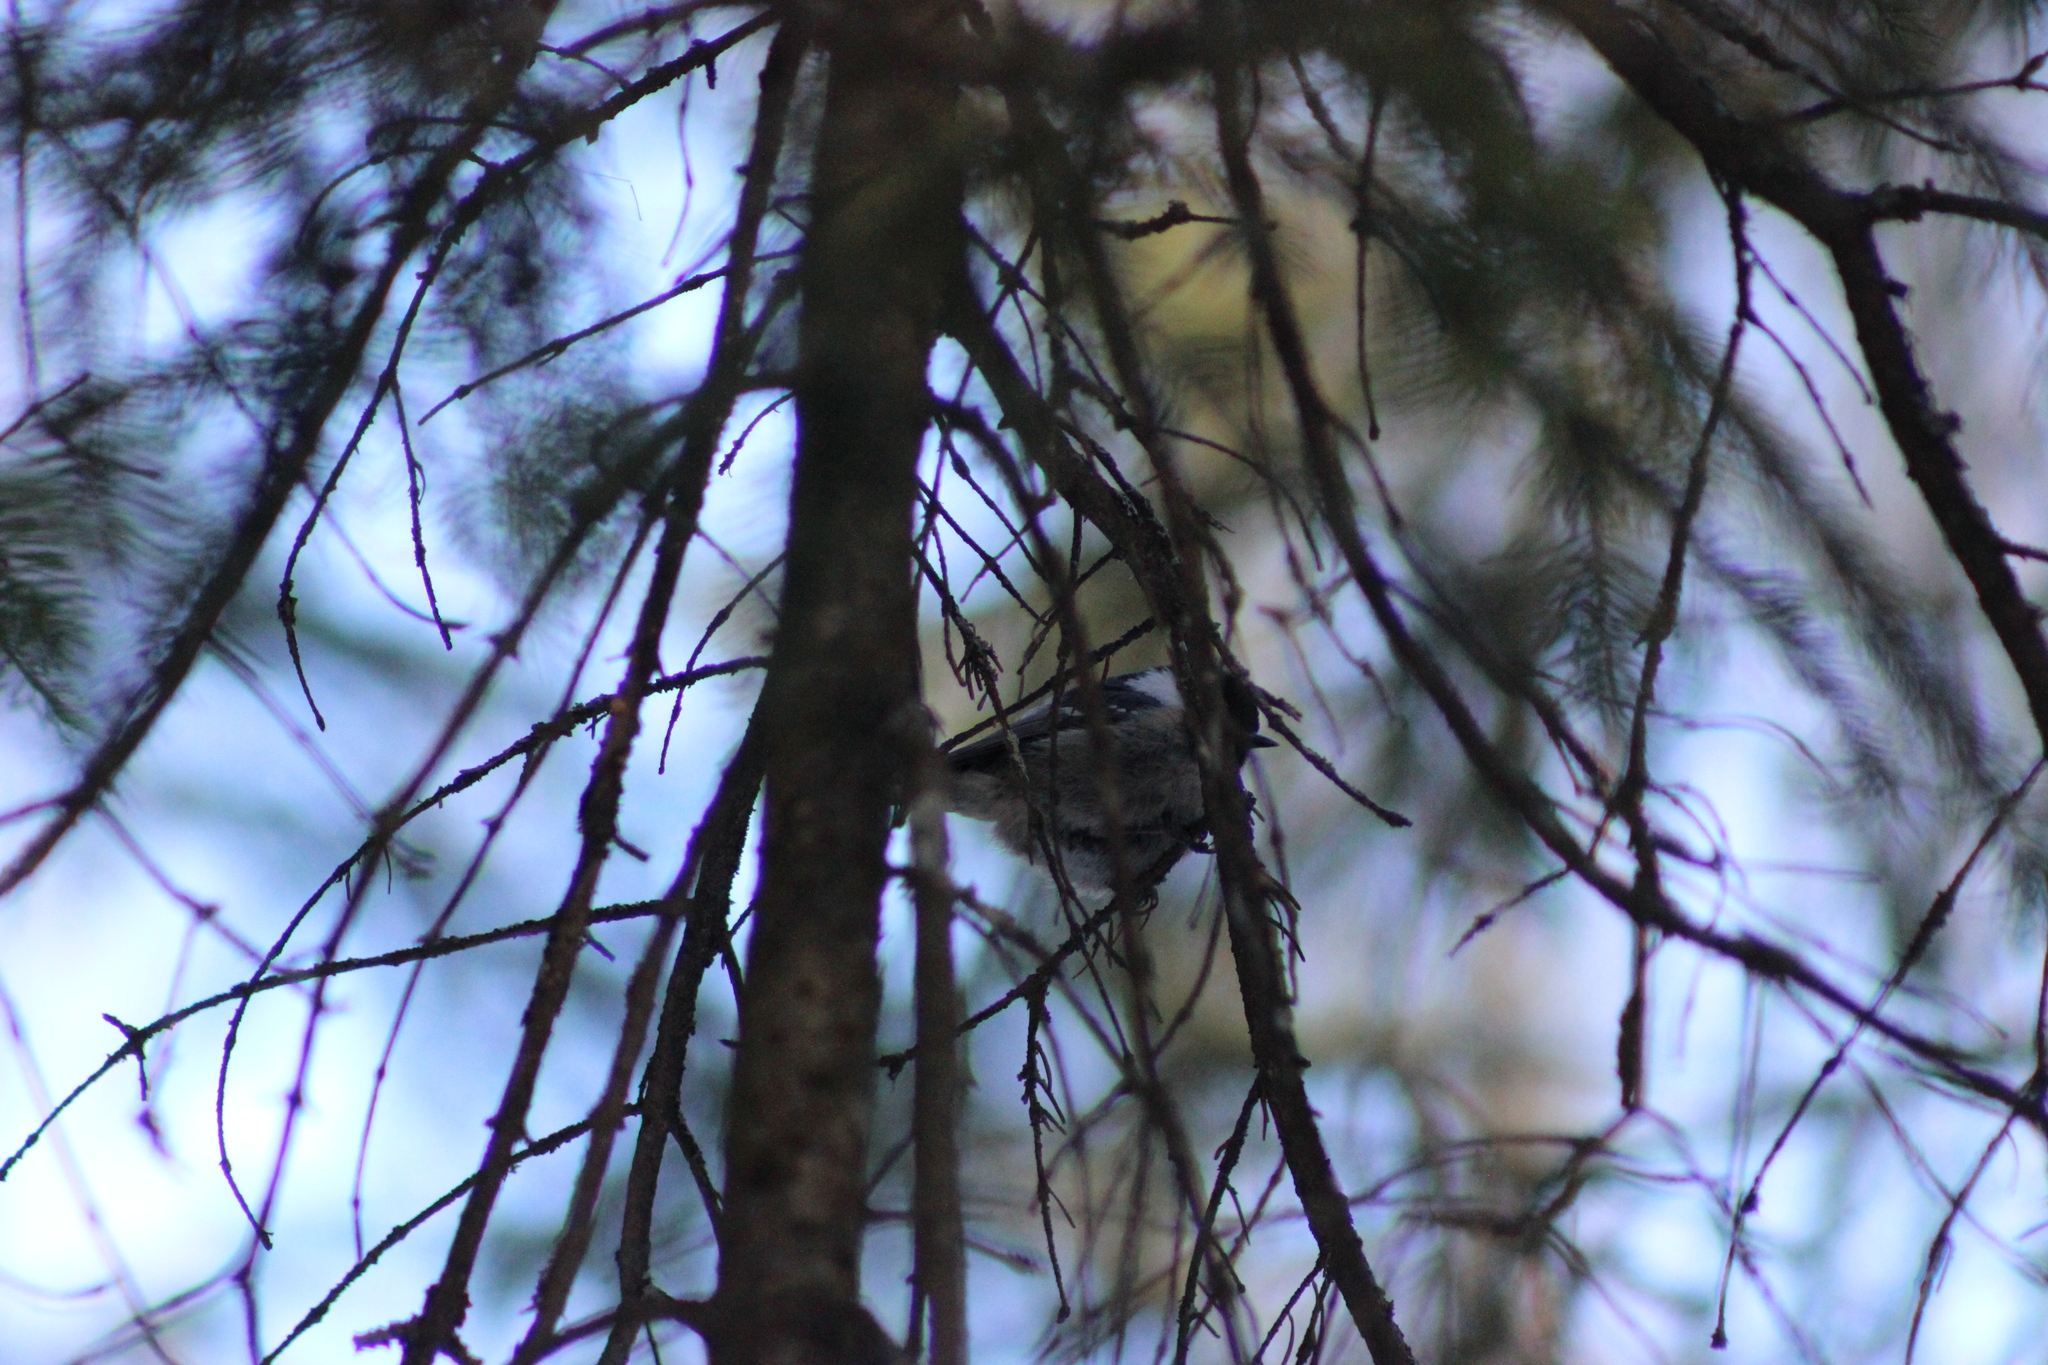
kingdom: Animalia
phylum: Chordata
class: Aves
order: Passeriformes
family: Paridae
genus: Periparus
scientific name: Periparus ater
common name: Coal tit
